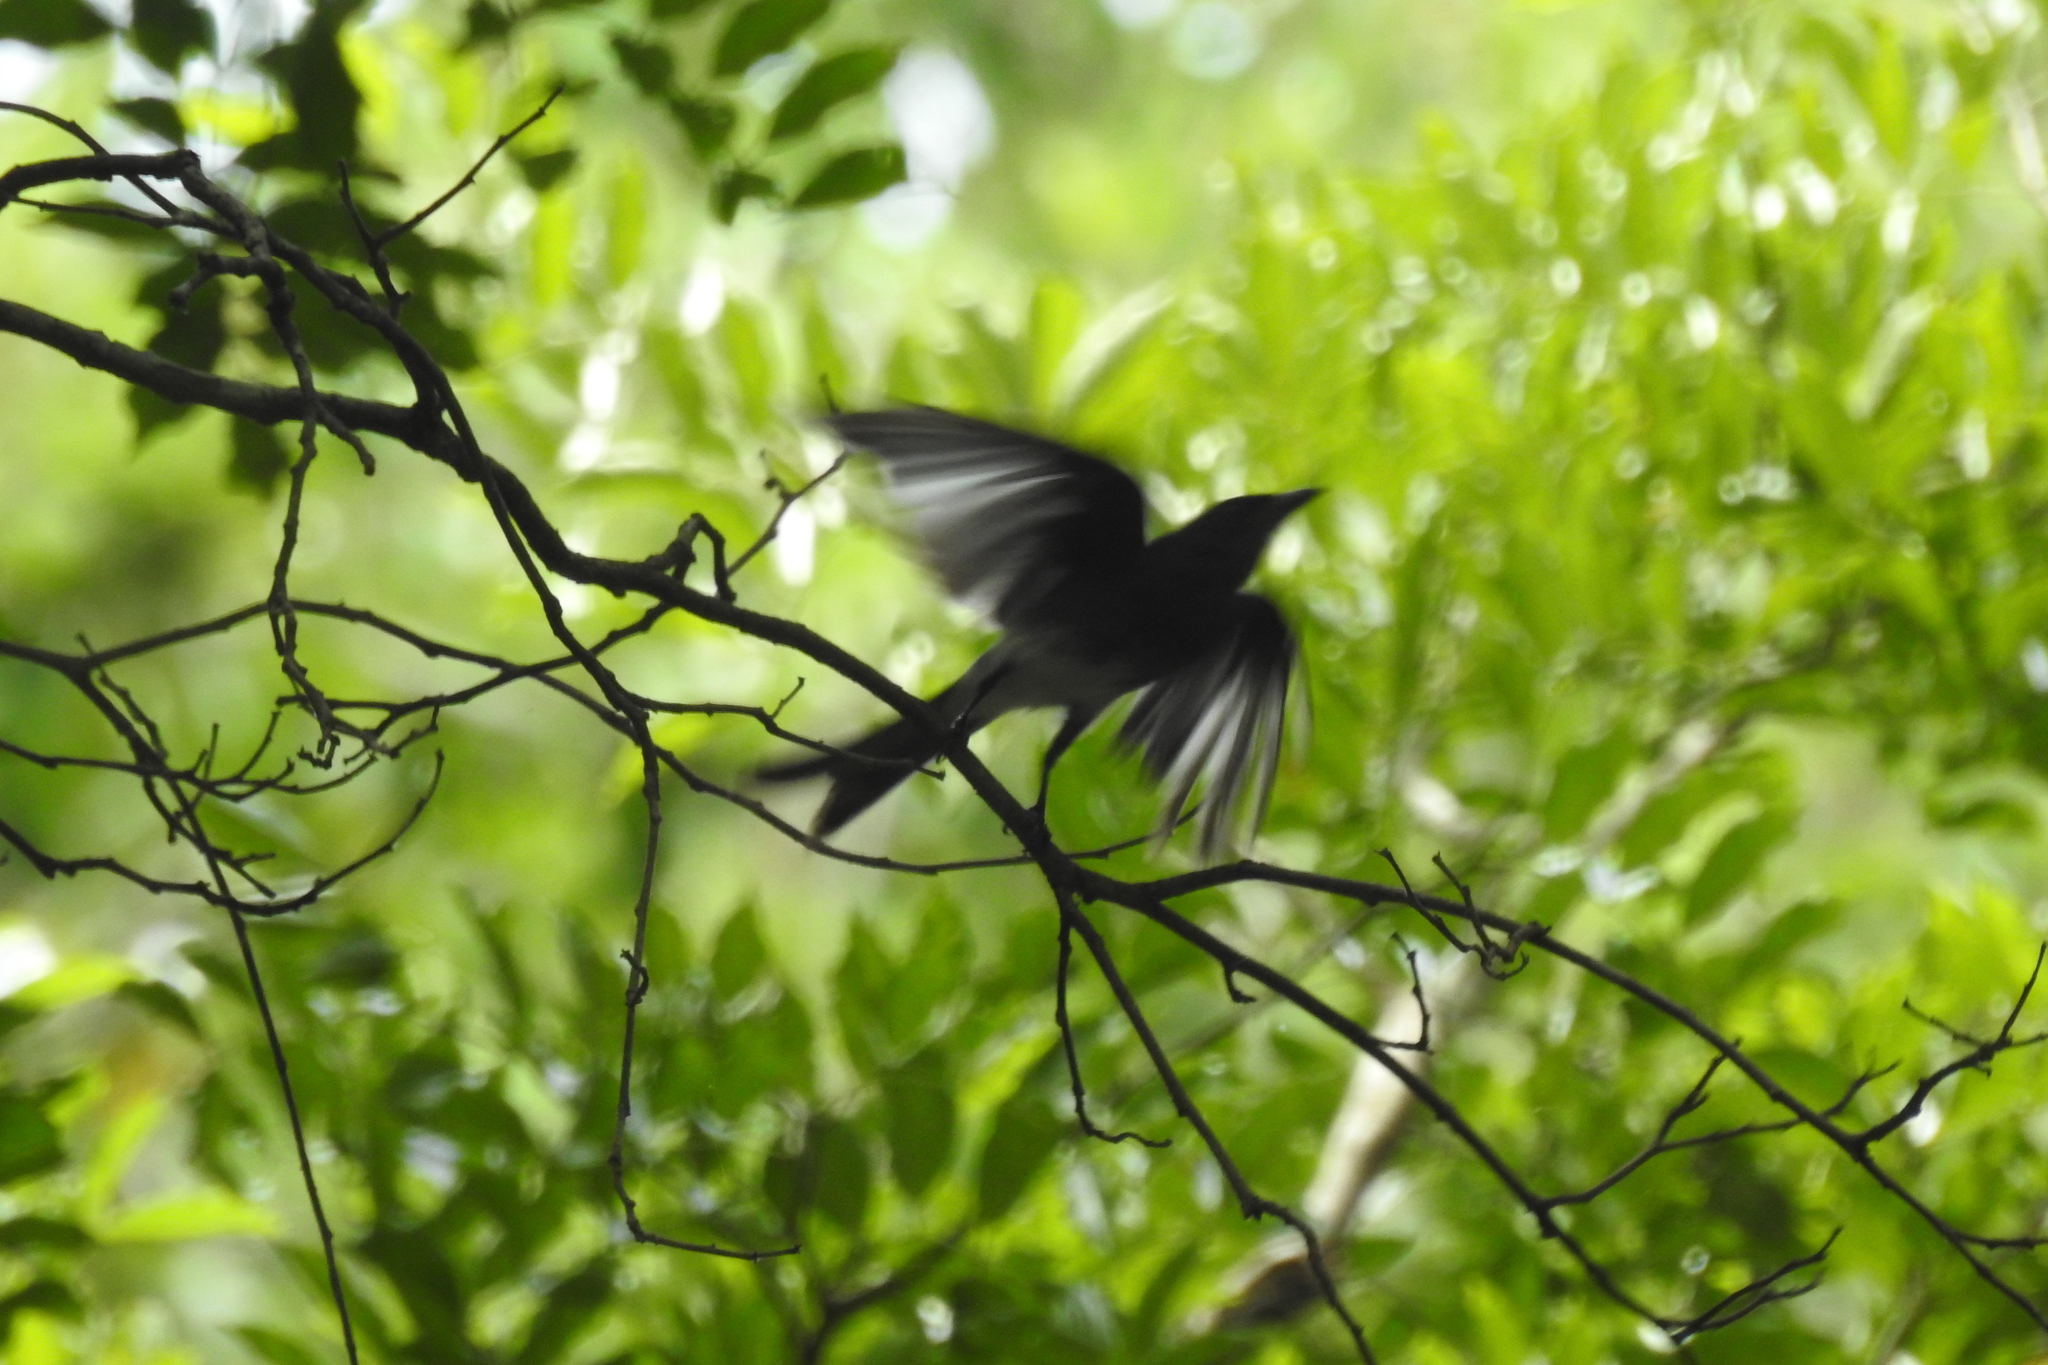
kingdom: Animalia
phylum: Chordata
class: Aves
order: Passeriformes
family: Dicruridae
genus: Dicrurus
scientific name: Dicrurus caerulescens
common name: White-bellied drongo
